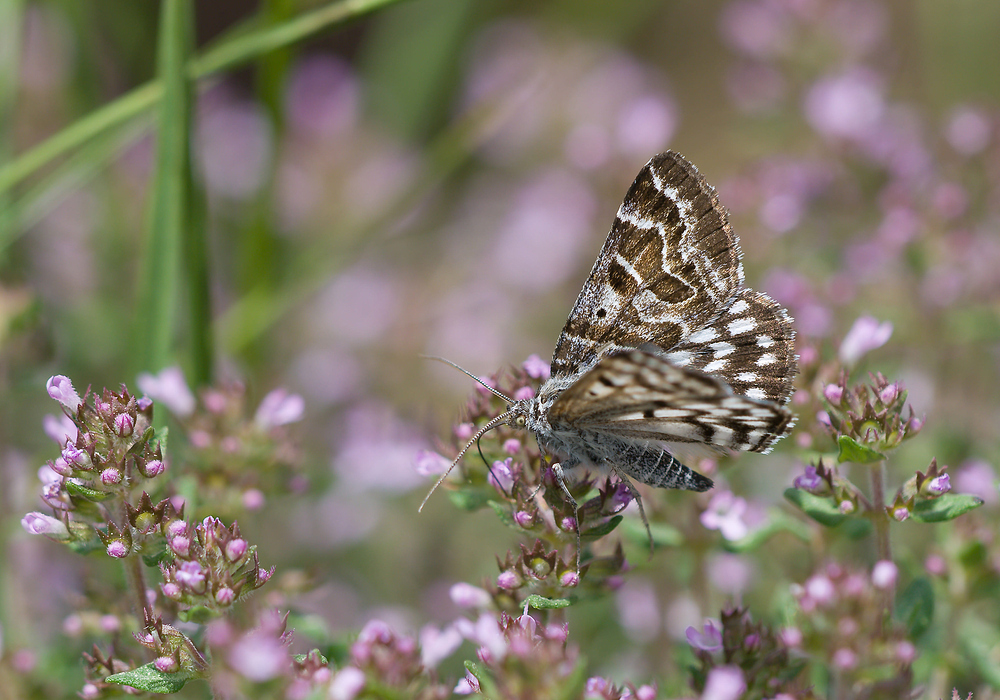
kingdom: Animalia
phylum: Arthropoda
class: Insecta
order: Lepidoptera
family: Erebidae
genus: Callistege
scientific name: Callistege mi
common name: Mother shipton
